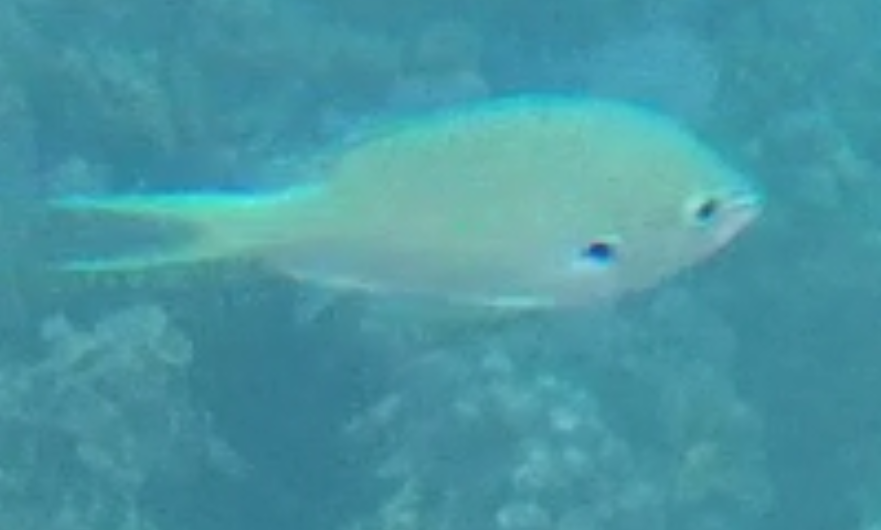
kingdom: Animalia
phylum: Chordata
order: Perciformes
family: Pomacentridae
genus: Chromis
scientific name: Chromis atripectoralis
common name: Black-axil chromis
